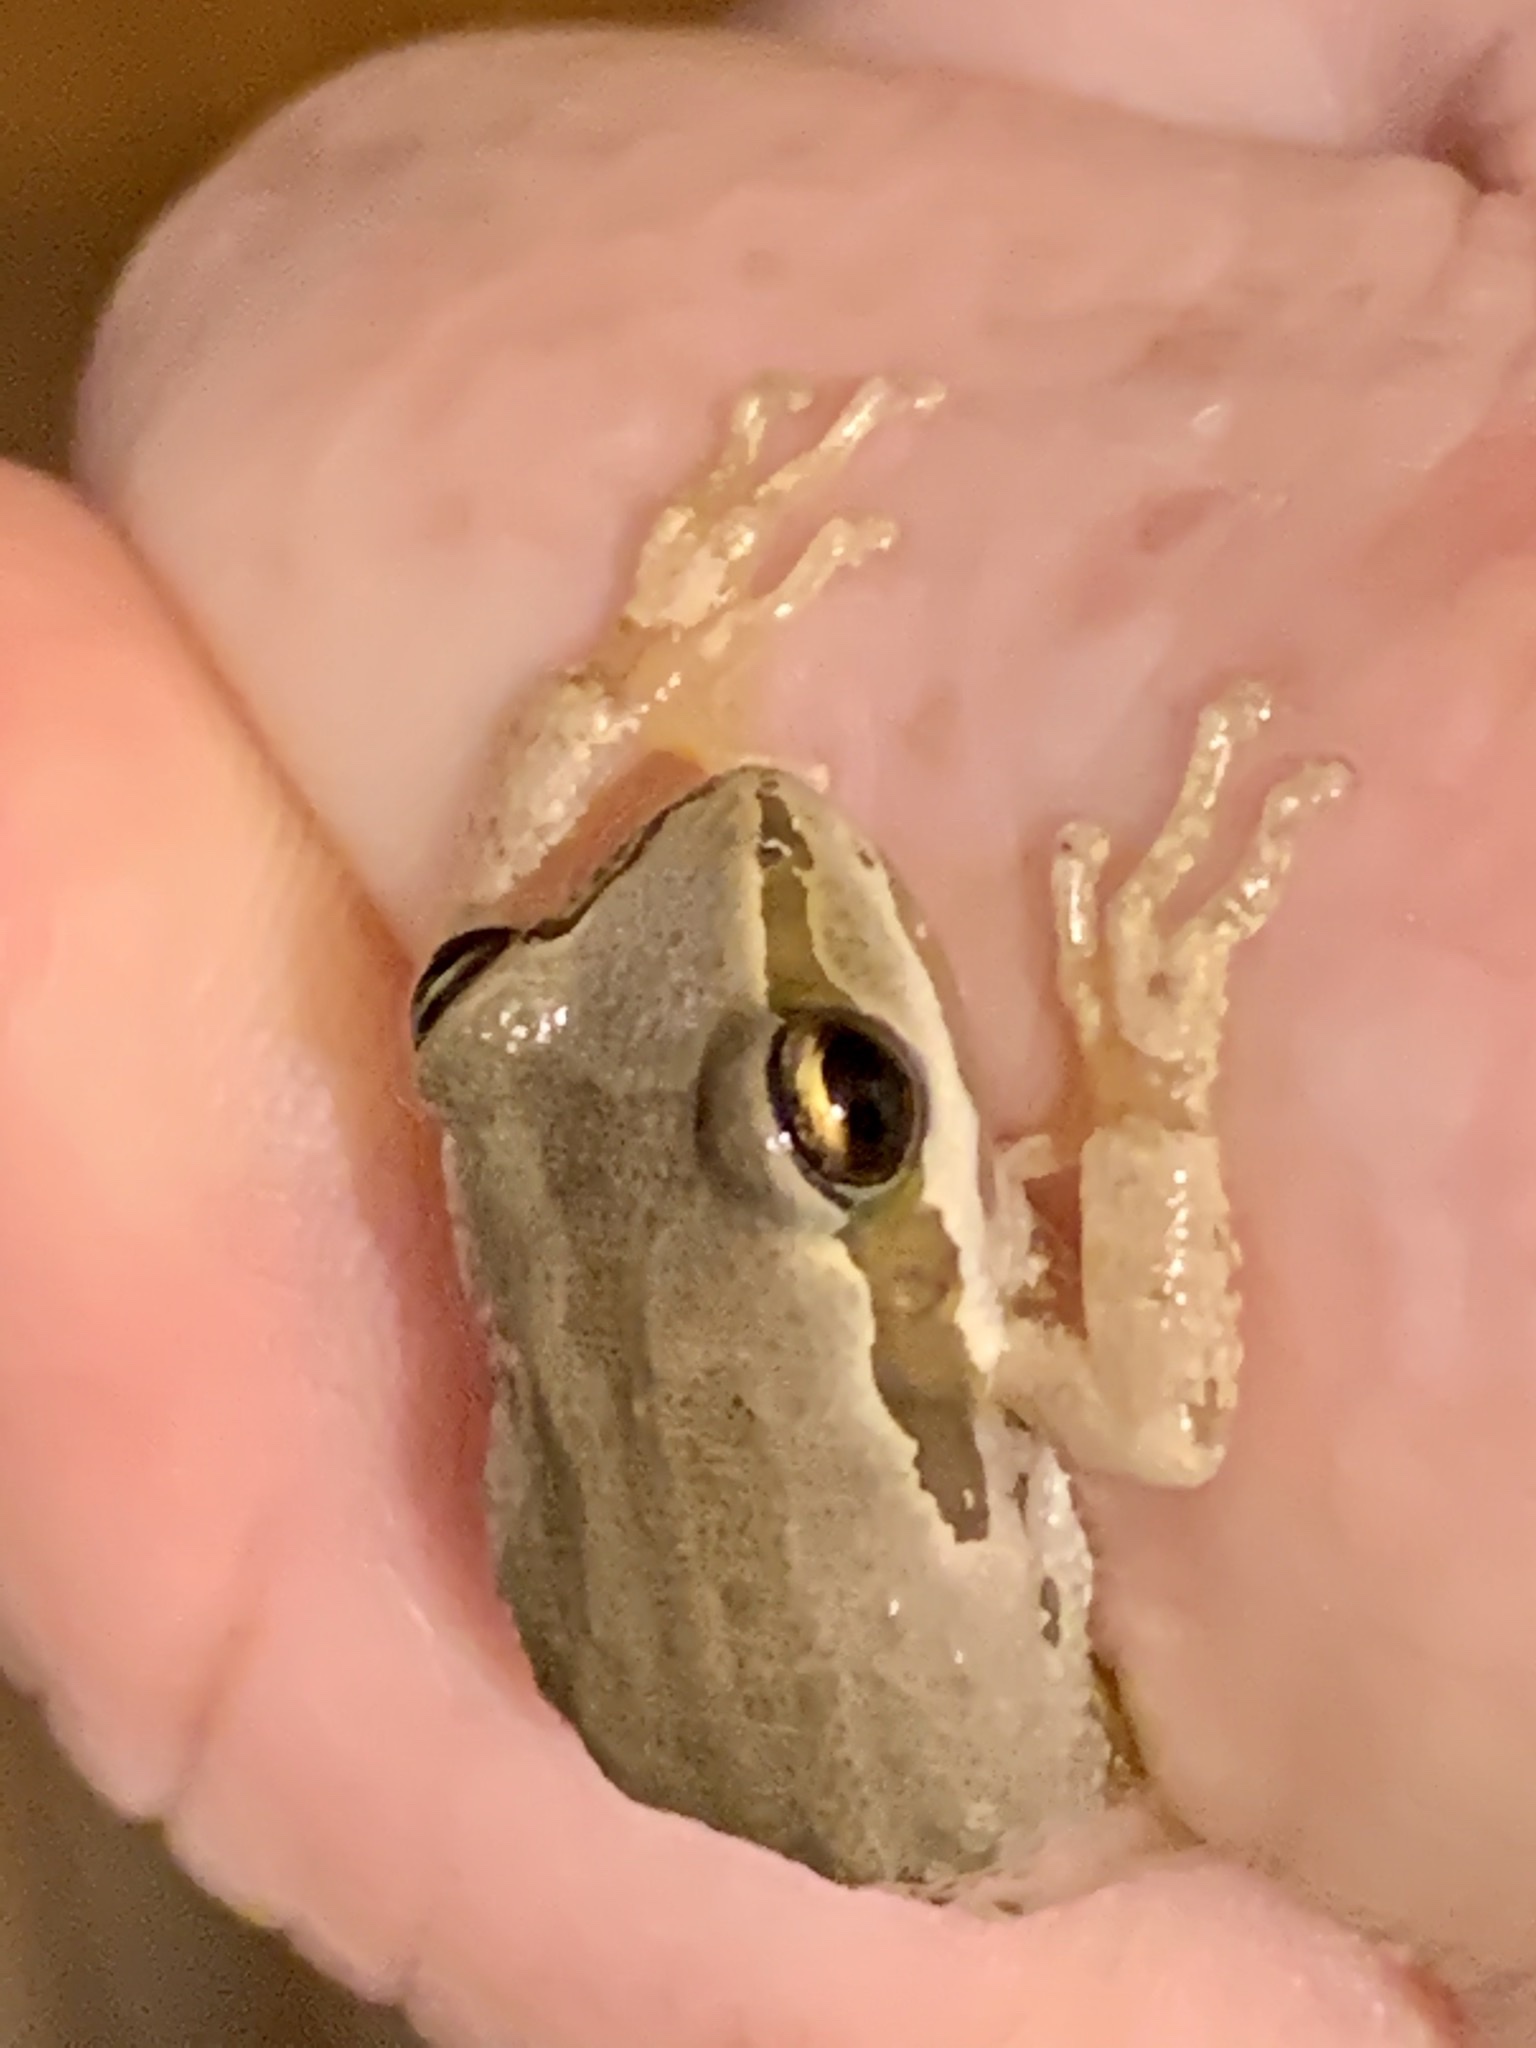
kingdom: Animalia
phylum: Chordata
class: Amphibia
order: Anura
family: Hylidae
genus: Pseudacris
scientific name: Pseudacris regilla
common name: Pacific chorus frog
